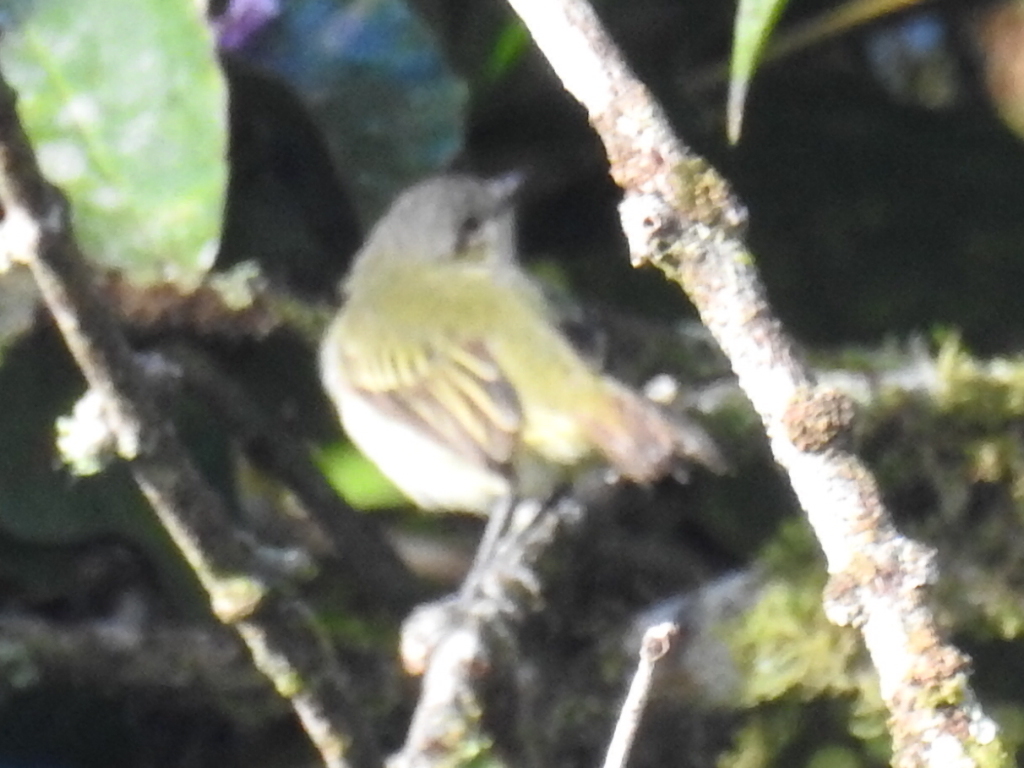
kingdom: Animalia
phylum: Chordata
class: Aves
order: Passeriformes
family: Tyrannidae
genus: Zimmerius
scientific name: Zimmerius vilissimus
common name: Paltry tyrannulet
